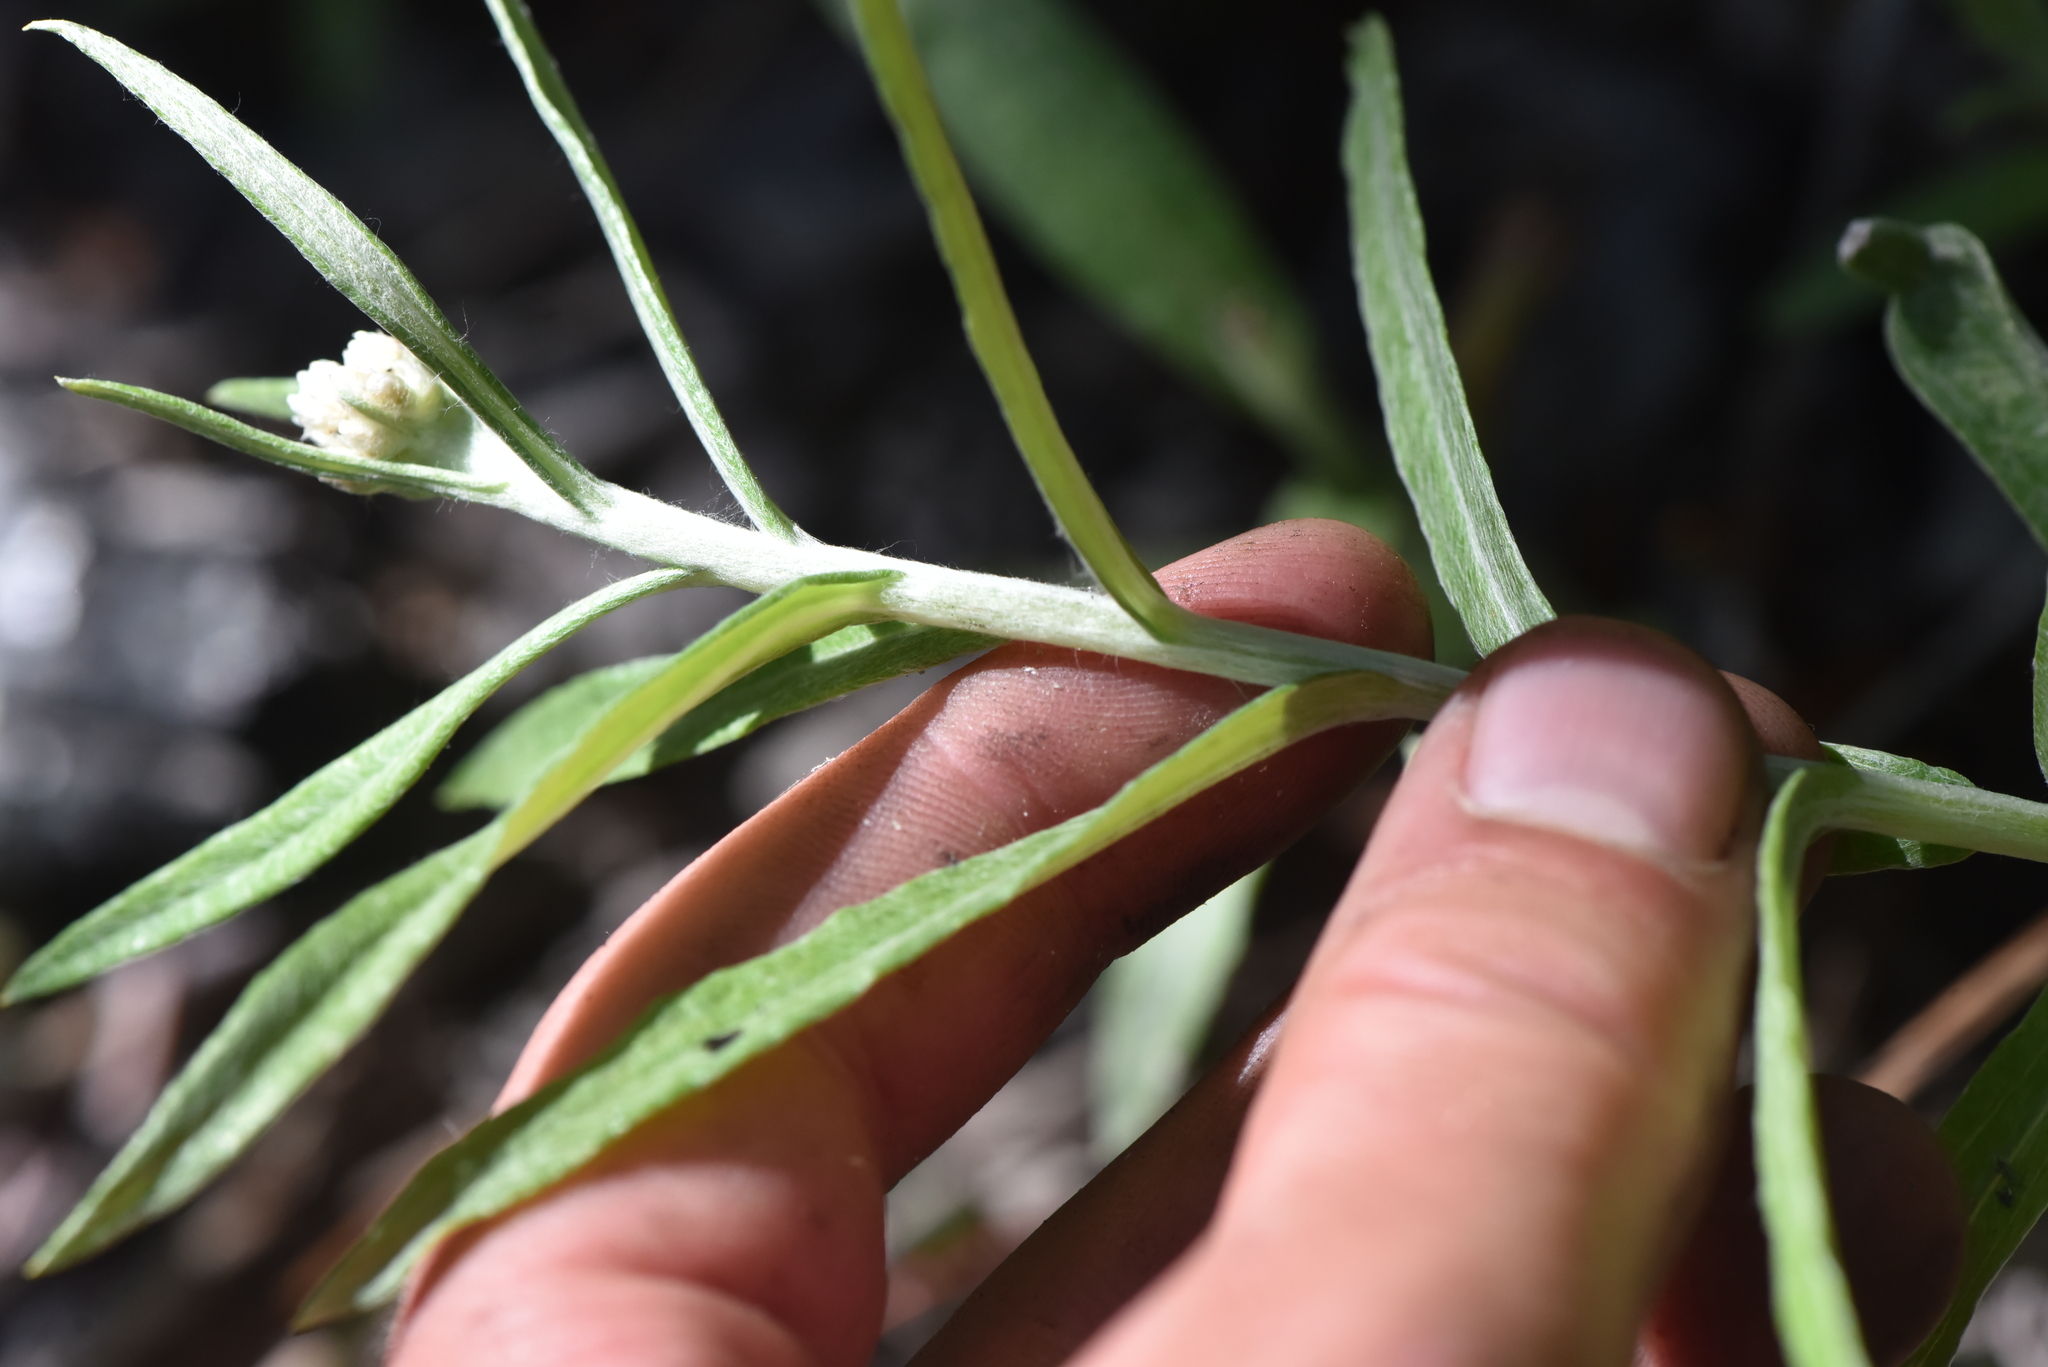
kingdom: Plantae
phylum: Tracheophyta
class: Magnoliopsida
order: Asterales
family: Asteraceae
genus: Anaphalis
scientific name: Anaphalis margaritacea
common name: Pearly everlasting
